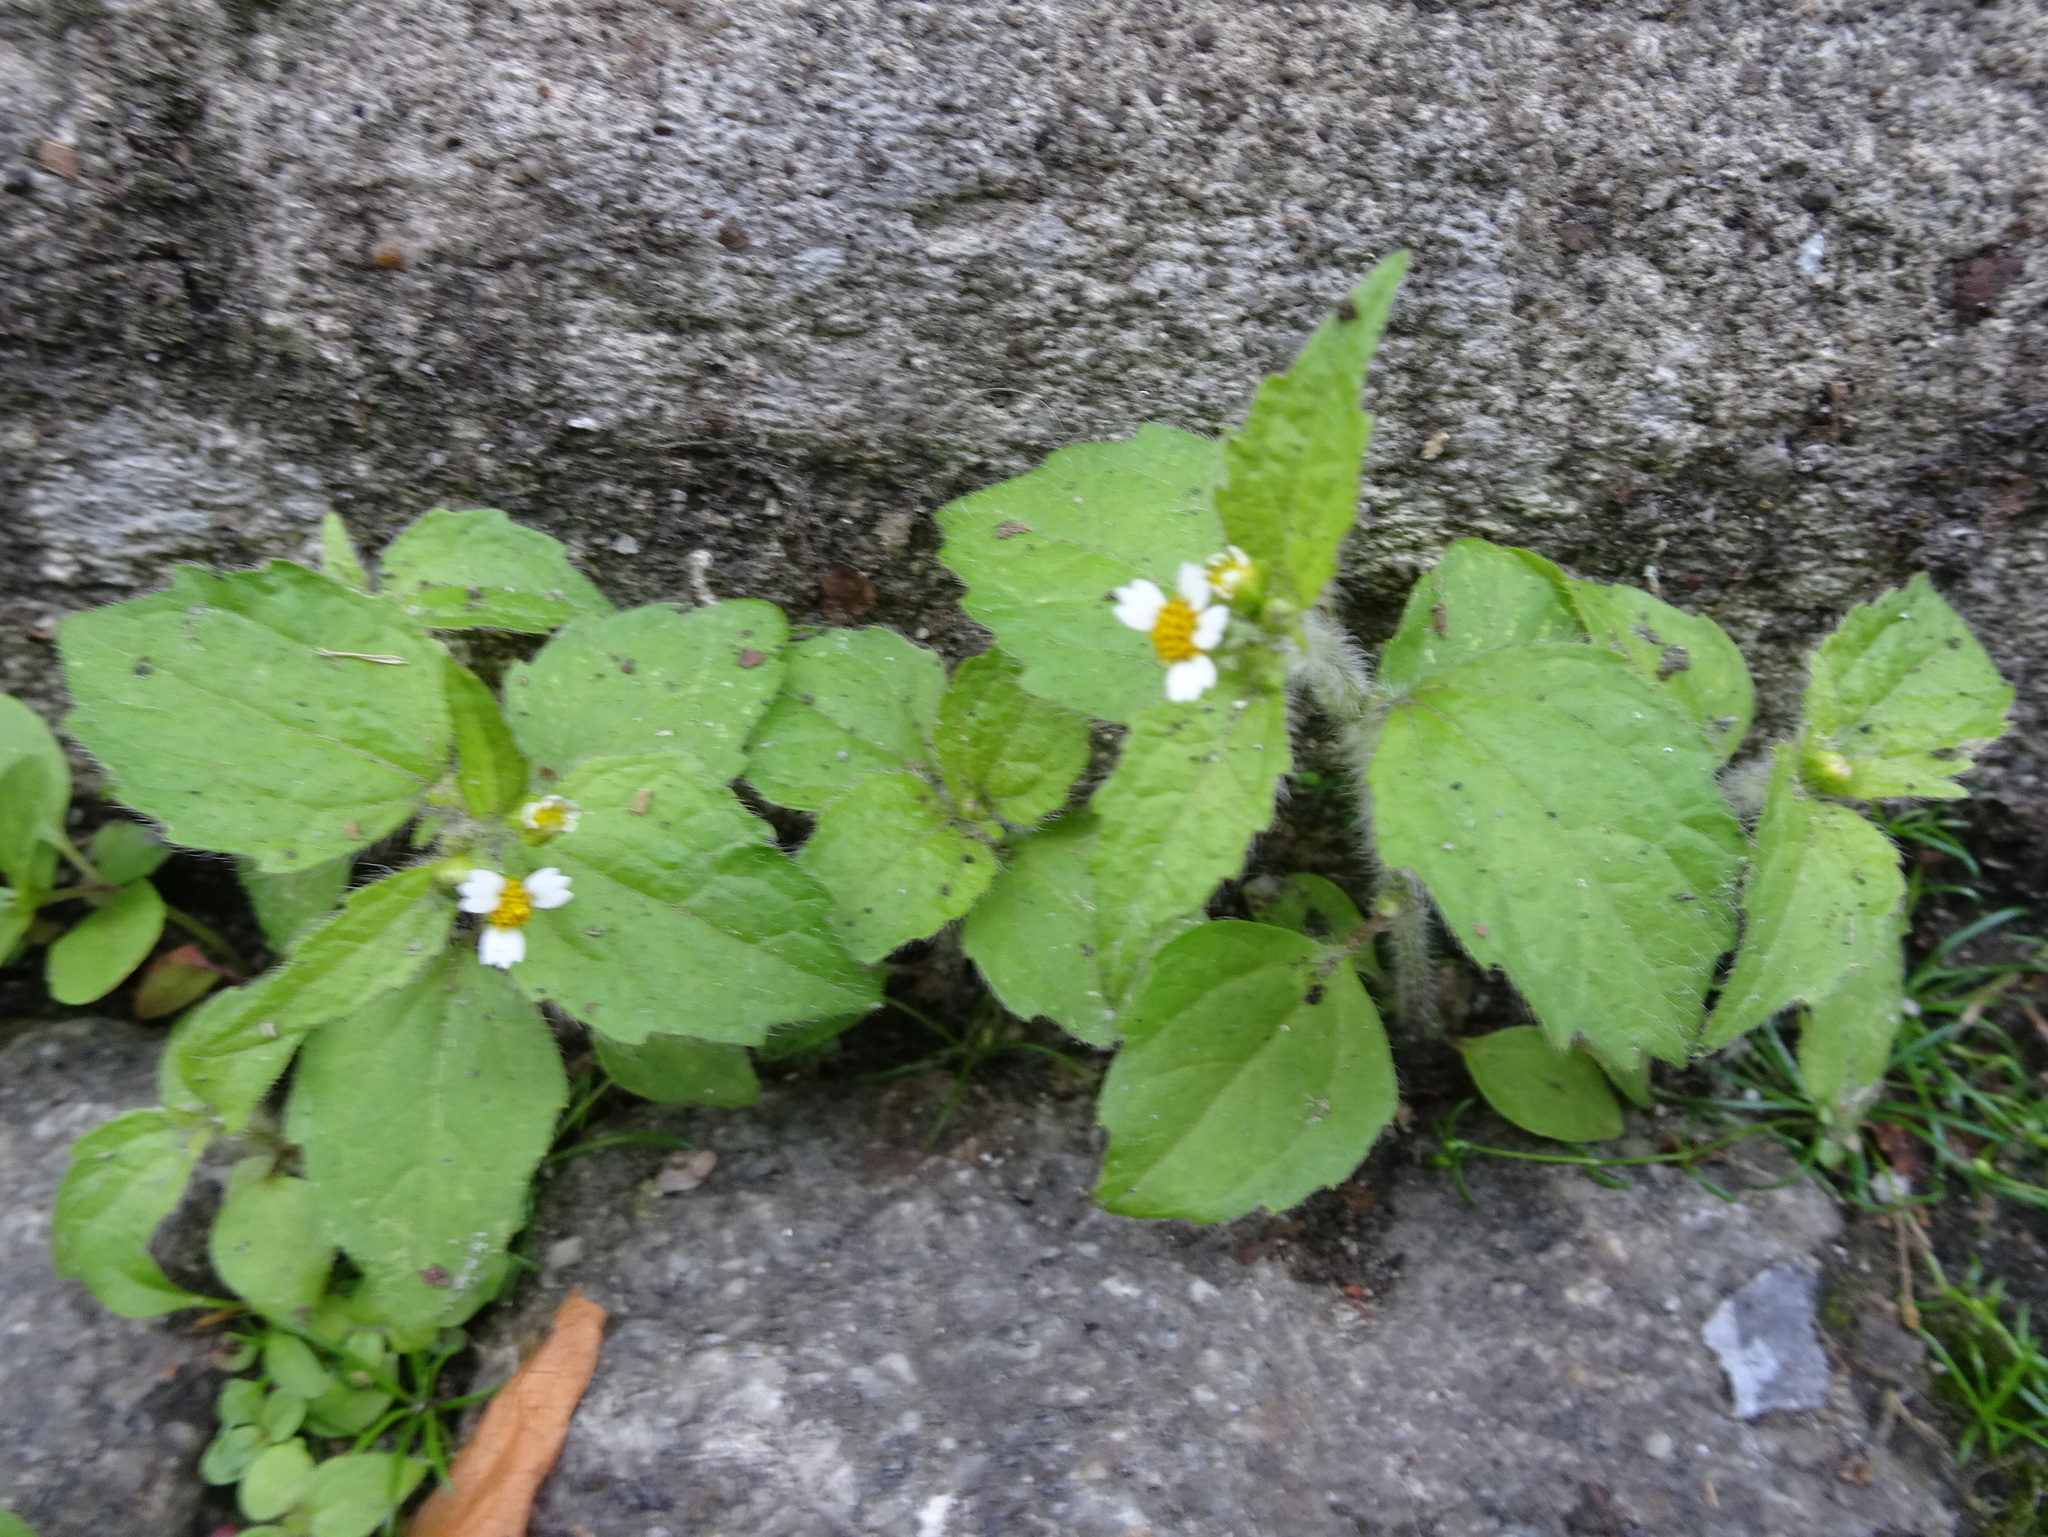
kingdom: Plantae
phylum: Tracheophyta
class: Magnoliopsida
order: Asterales
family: Asteraceae
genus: Galinsoga
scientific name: Galinsoga quadriradiata
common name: Shaggy soldier
